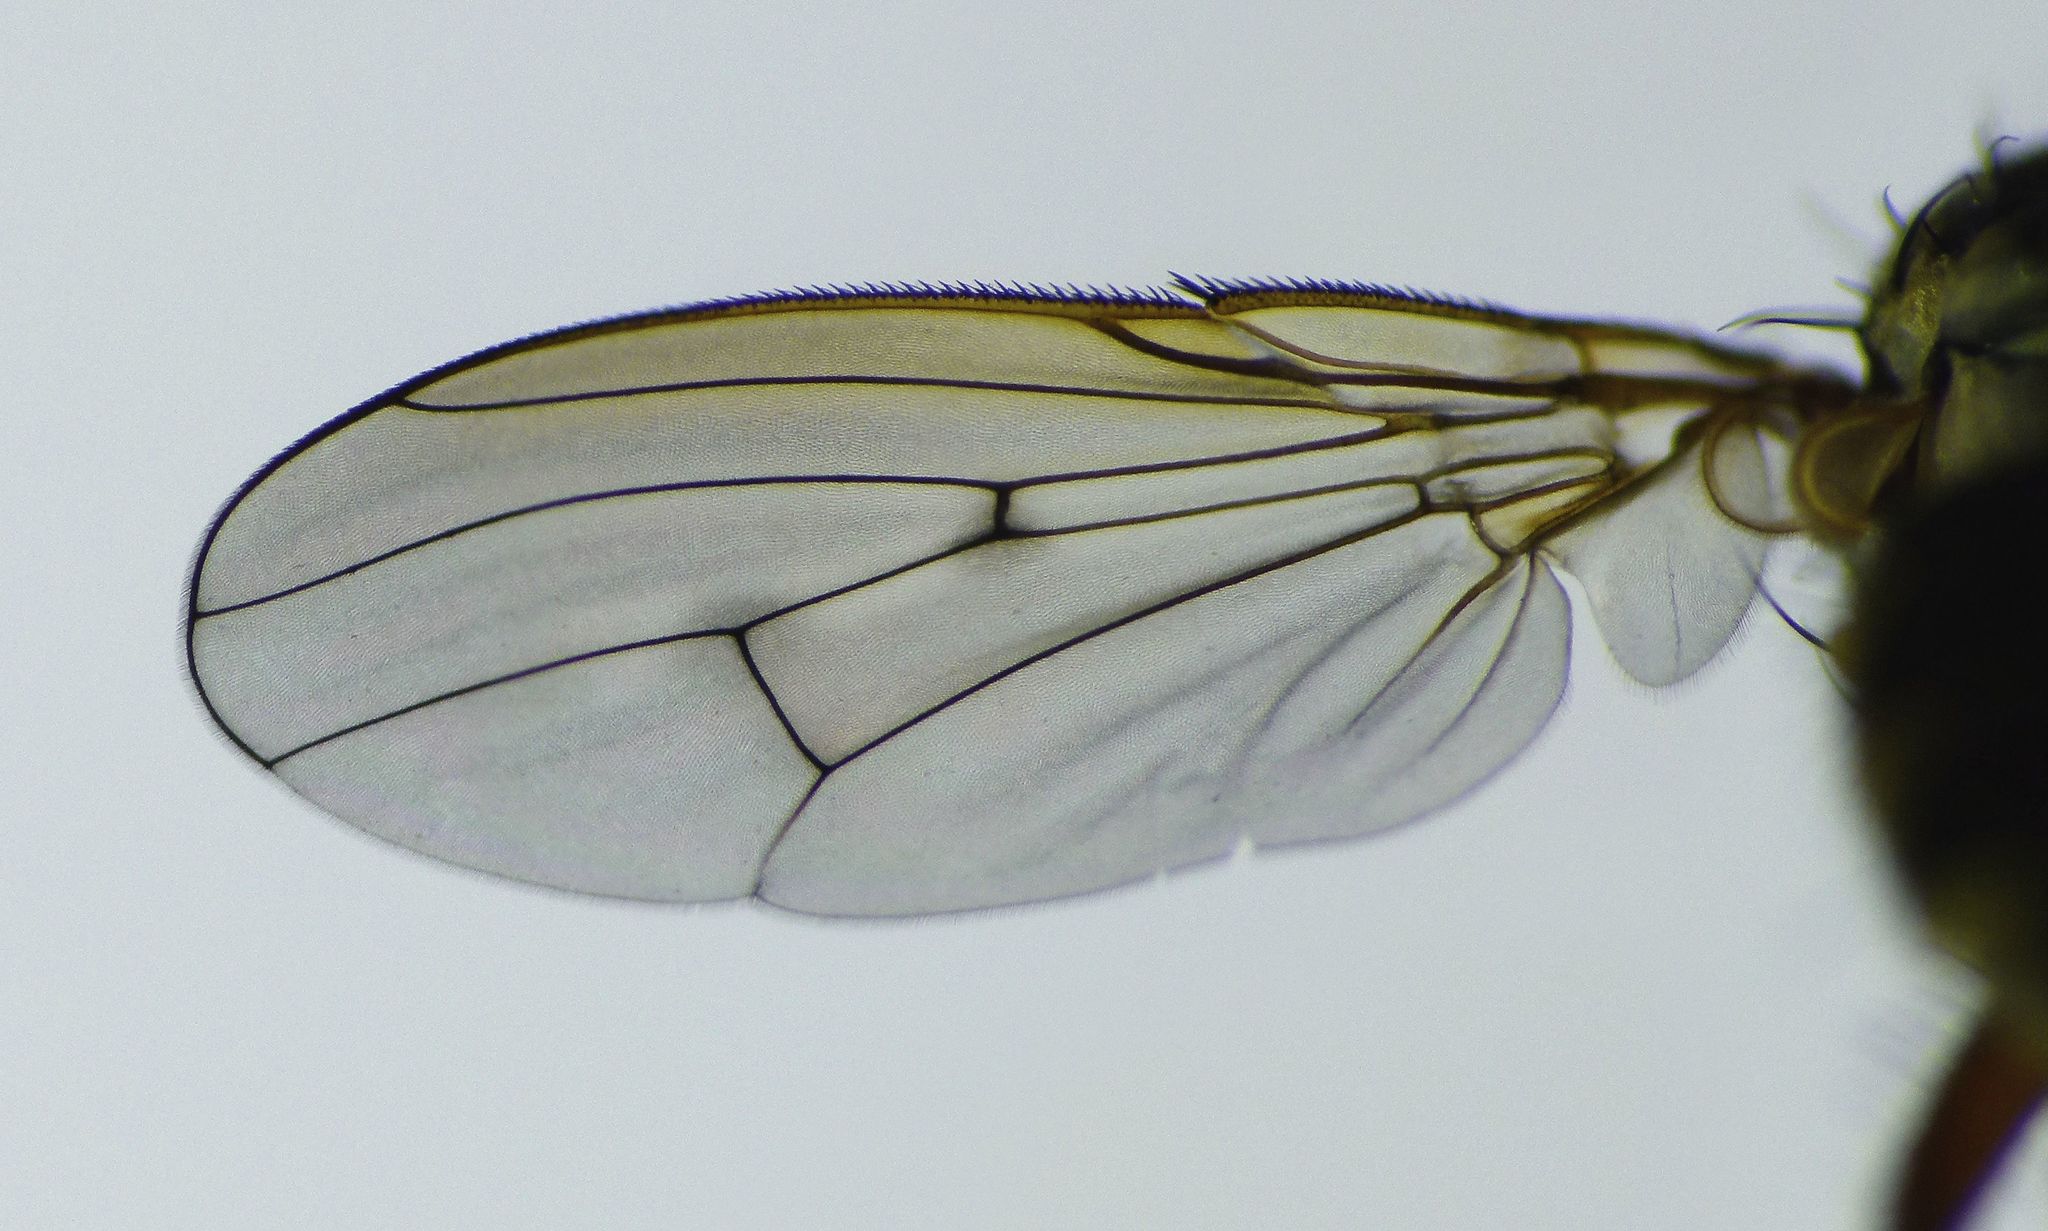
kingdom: Animalia
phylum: Arthropoda
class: Insecta
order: Diptera
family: Muscidae
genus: Limnohelina
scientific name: Limnohelina uniformis
